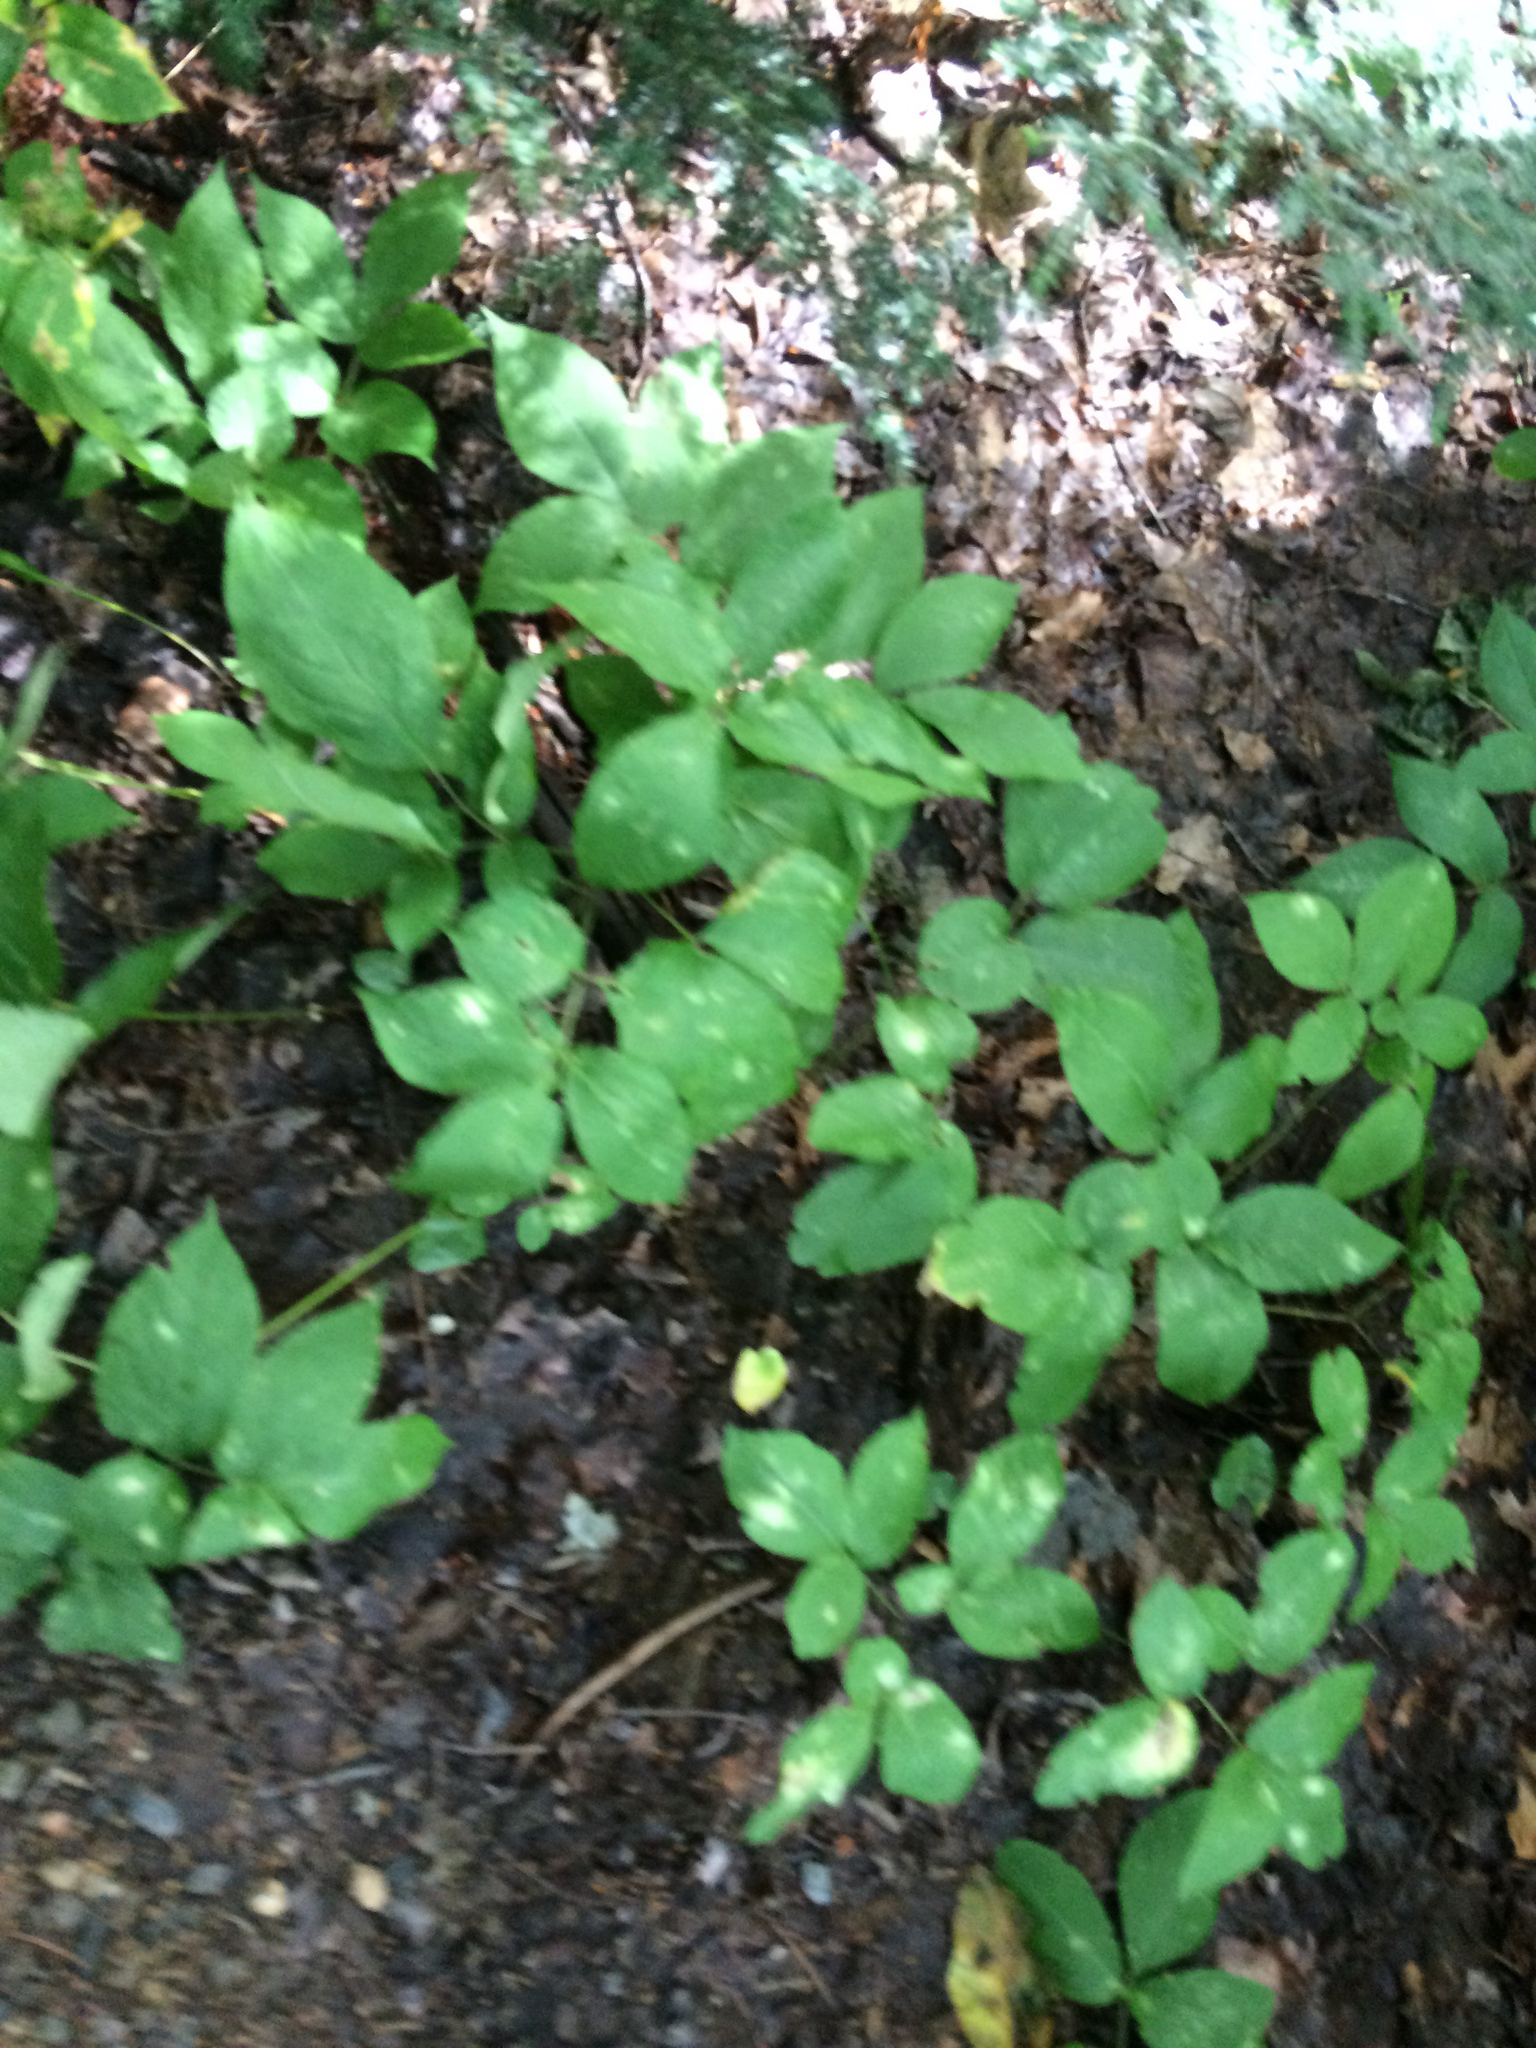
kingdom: Plantae
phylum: Tracheophyta
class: Magnoliopsida
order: Apiales
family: Araliaceae
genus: Aralia
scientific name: Aralia nudicaulis
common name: Wild sarsaparilla
